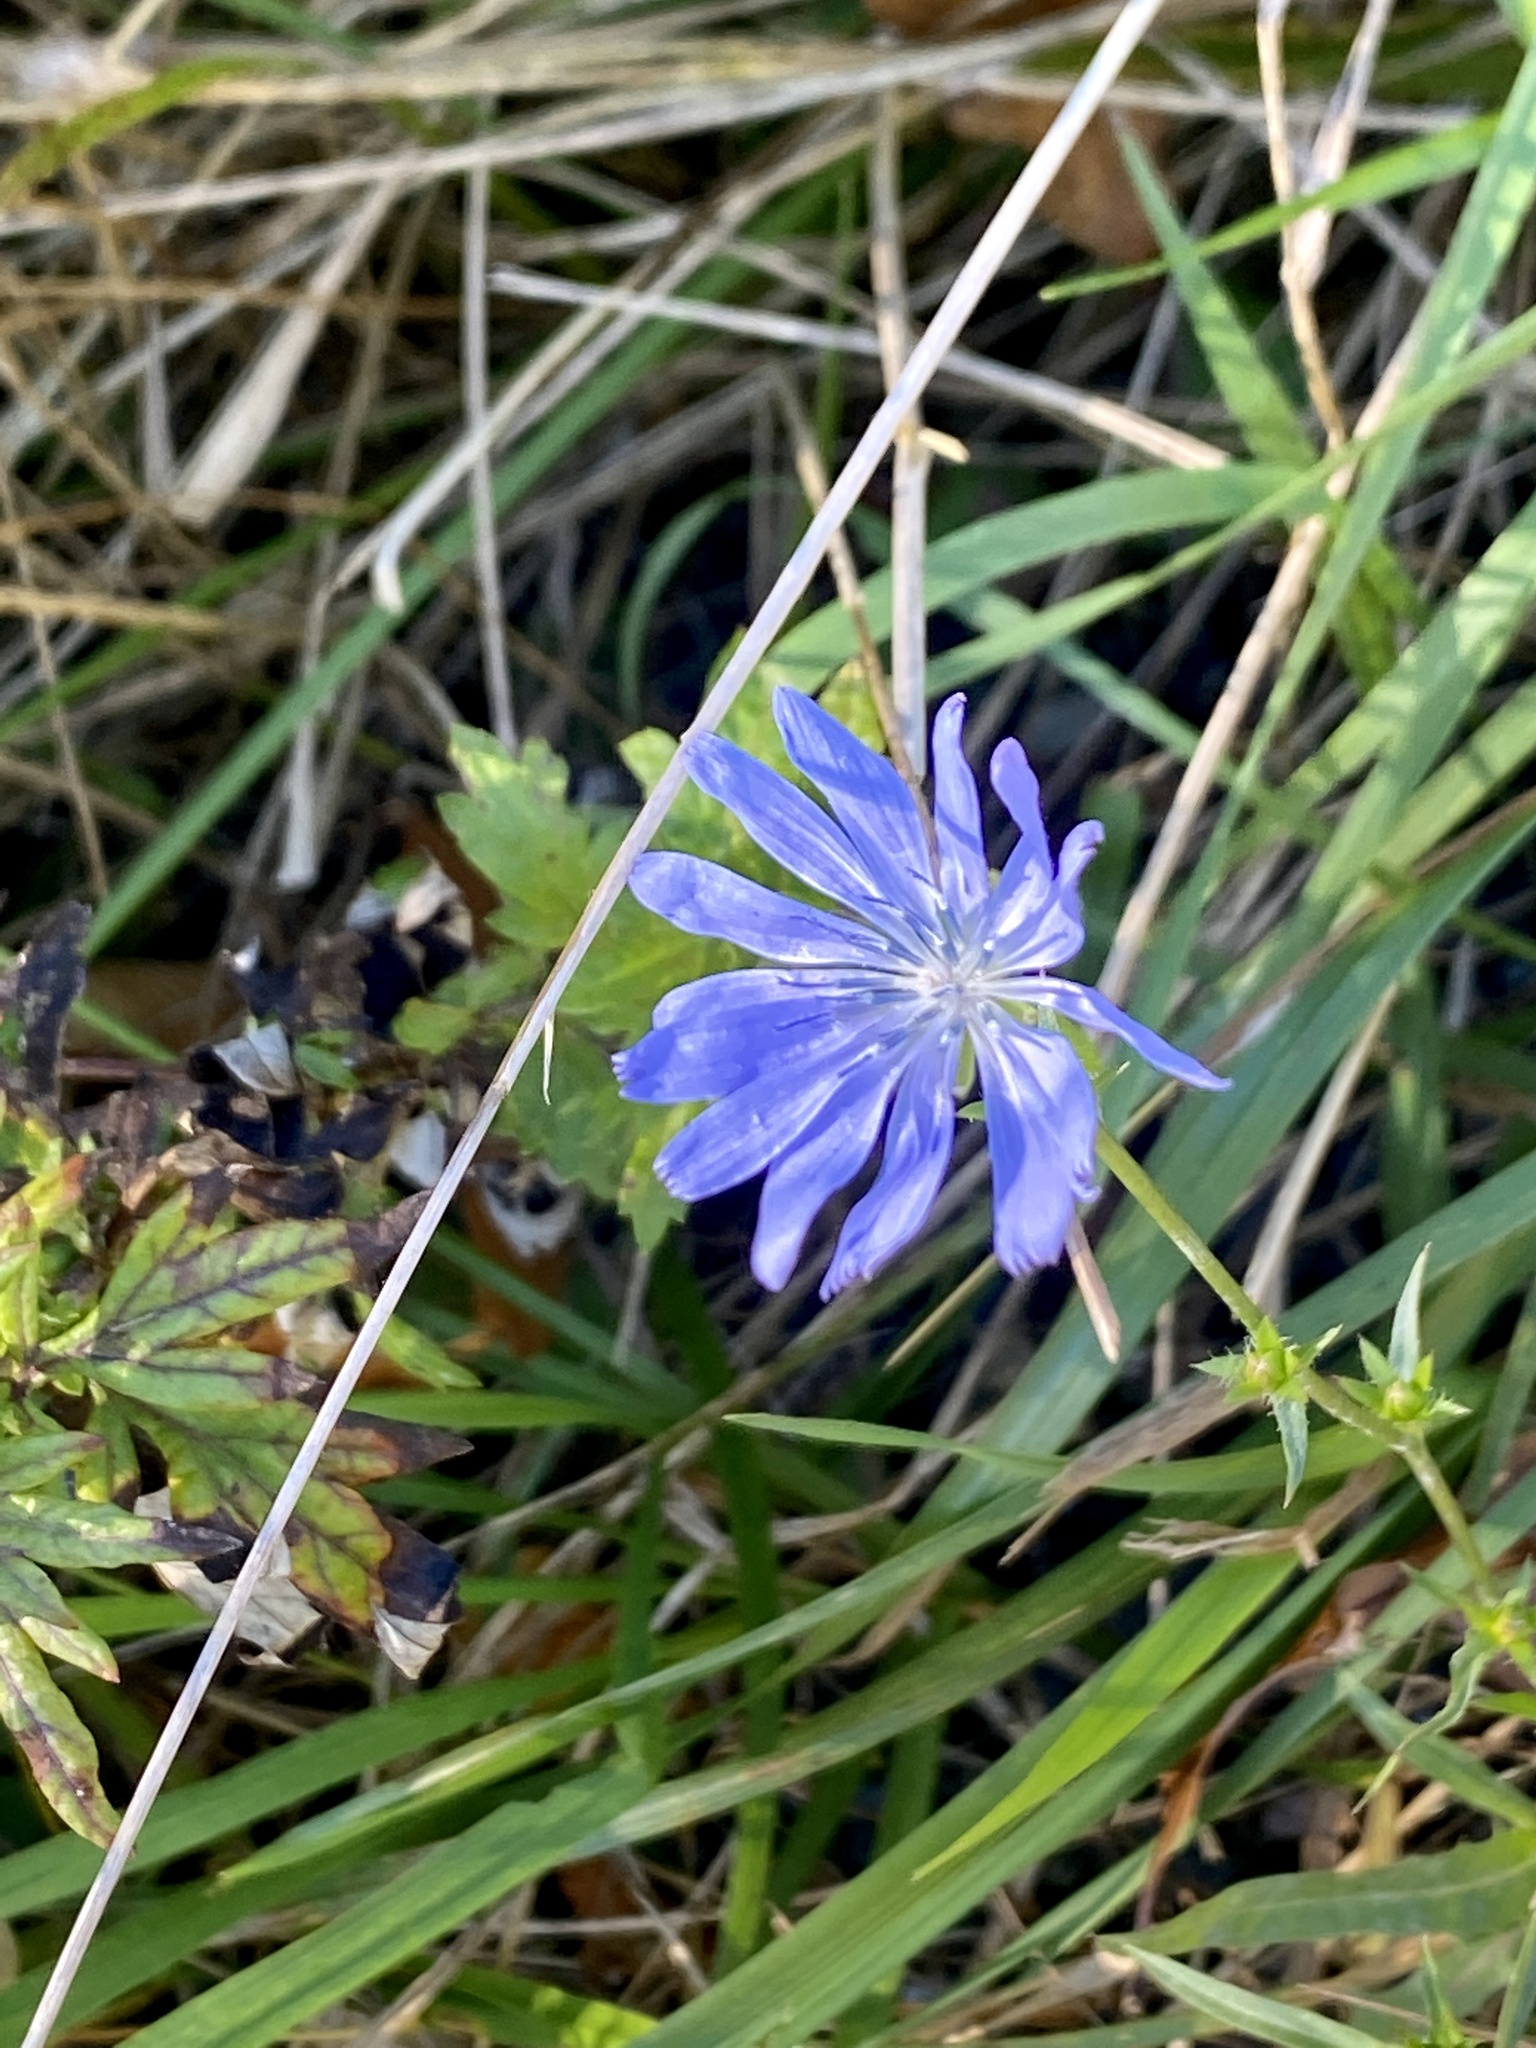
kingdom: Plantae
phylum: Tracheophyta
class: Magnoliopsida
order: Asterales
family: Asteraceae
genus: Cichorium
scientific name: Cichorium intybus
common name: Chicory
